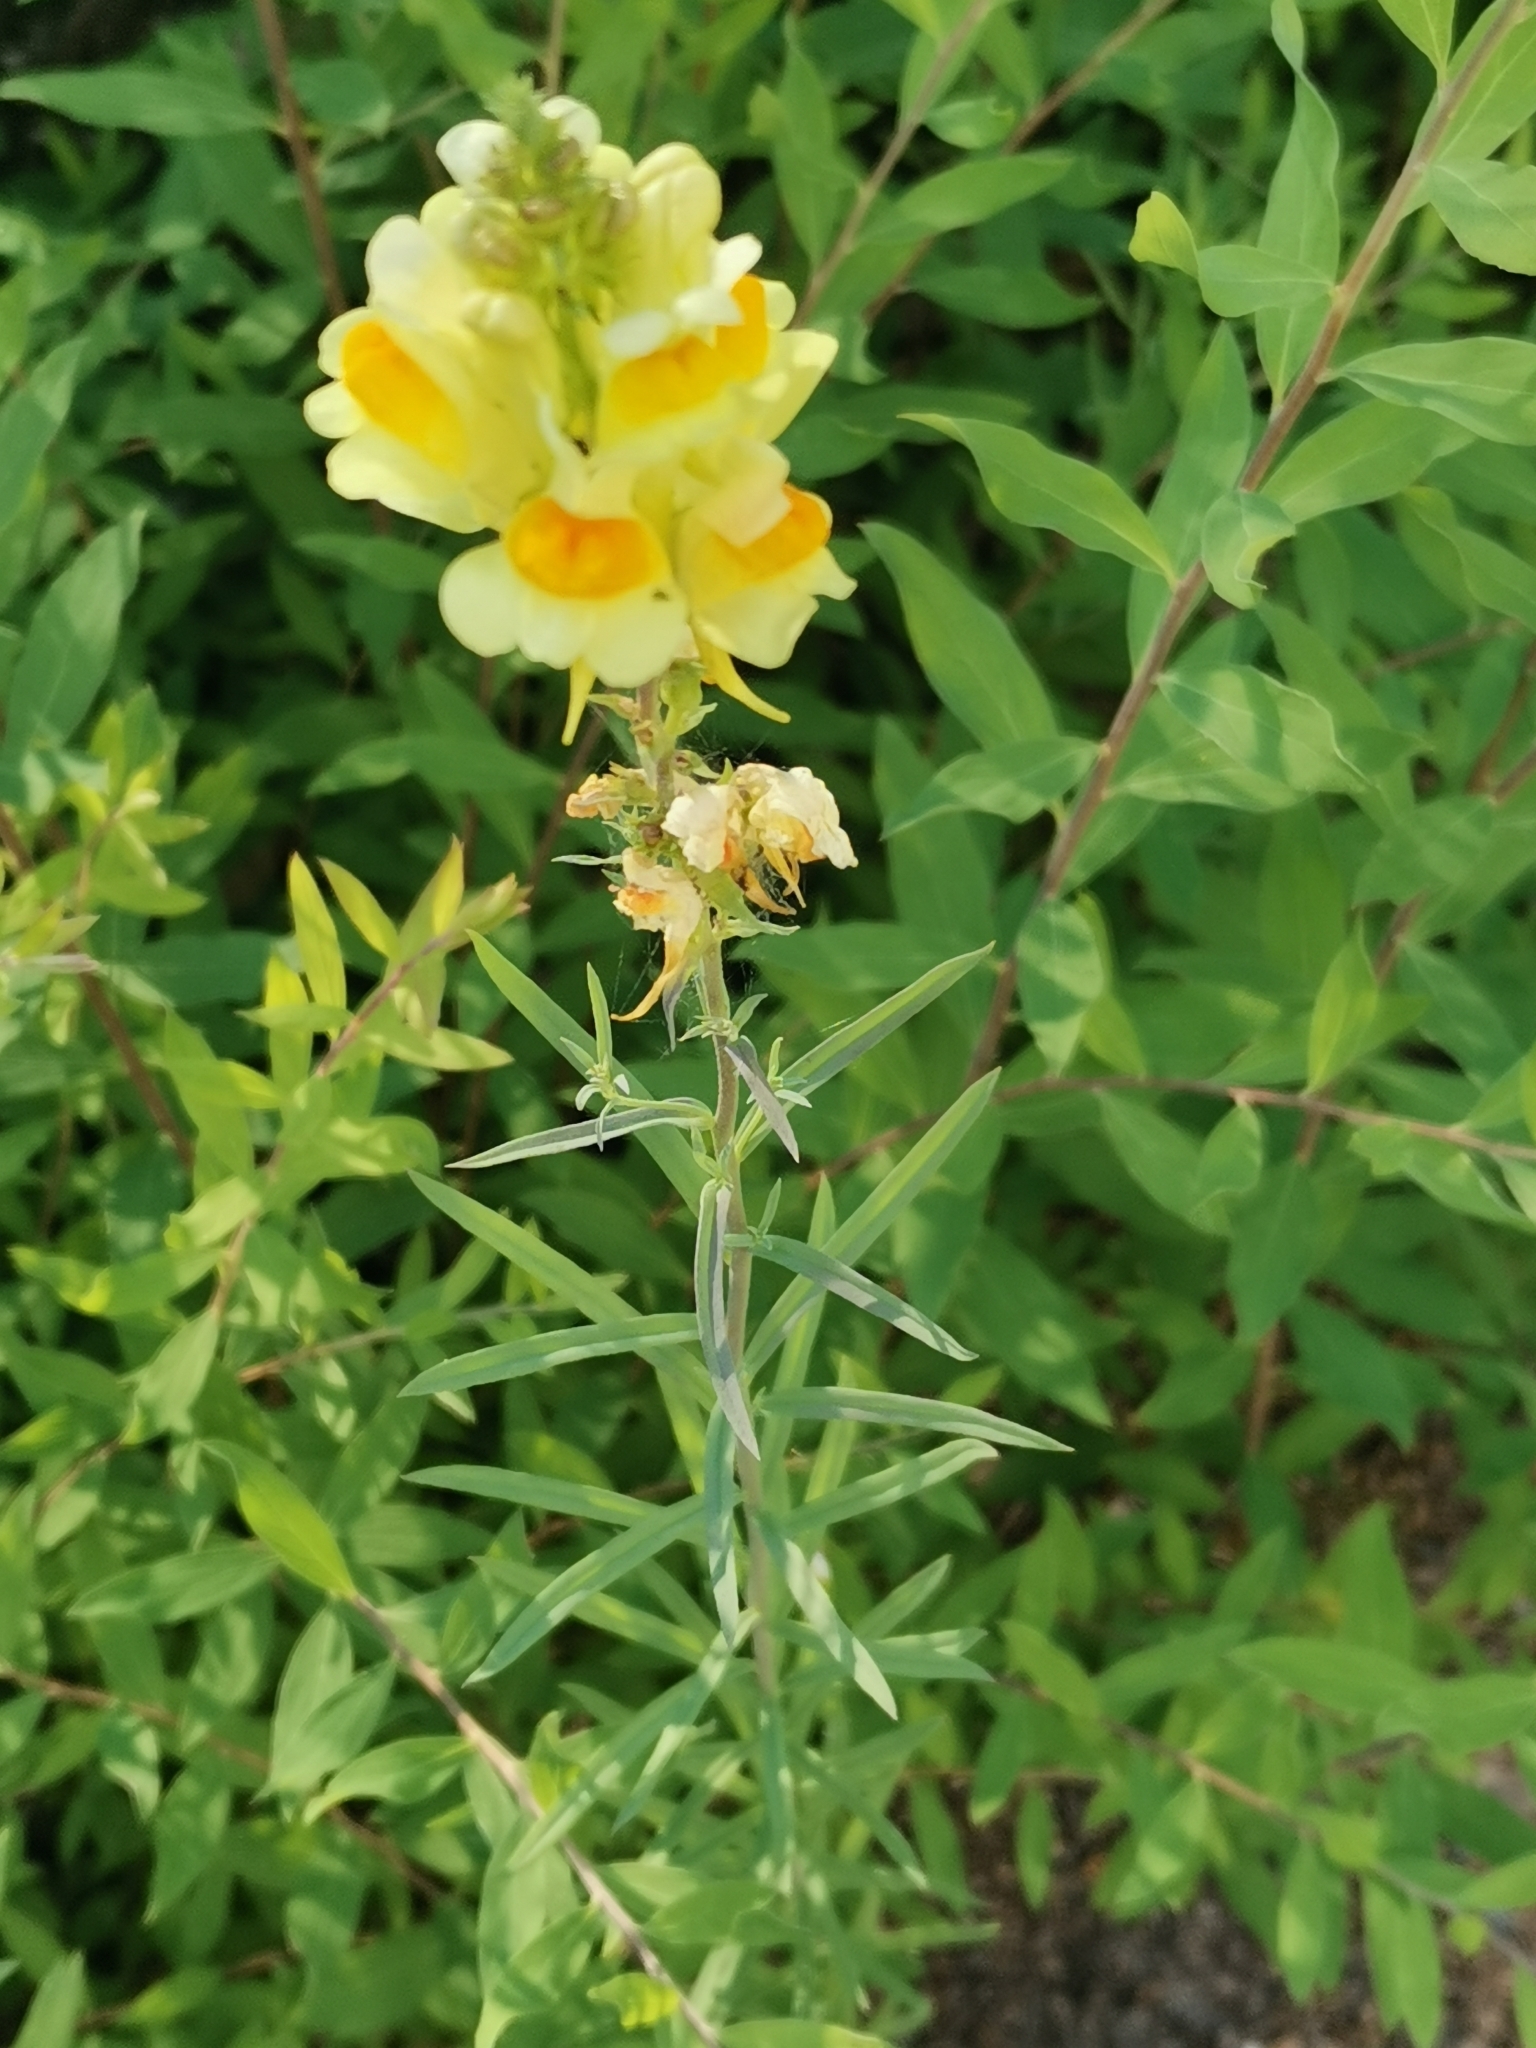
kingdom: Plantae
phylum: Tracheophyta
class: Magnoliopsida
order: Lamiales
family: Plantaginaceae
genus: Linaria
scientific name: Linaria vulgaris
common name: Butter and eggs
